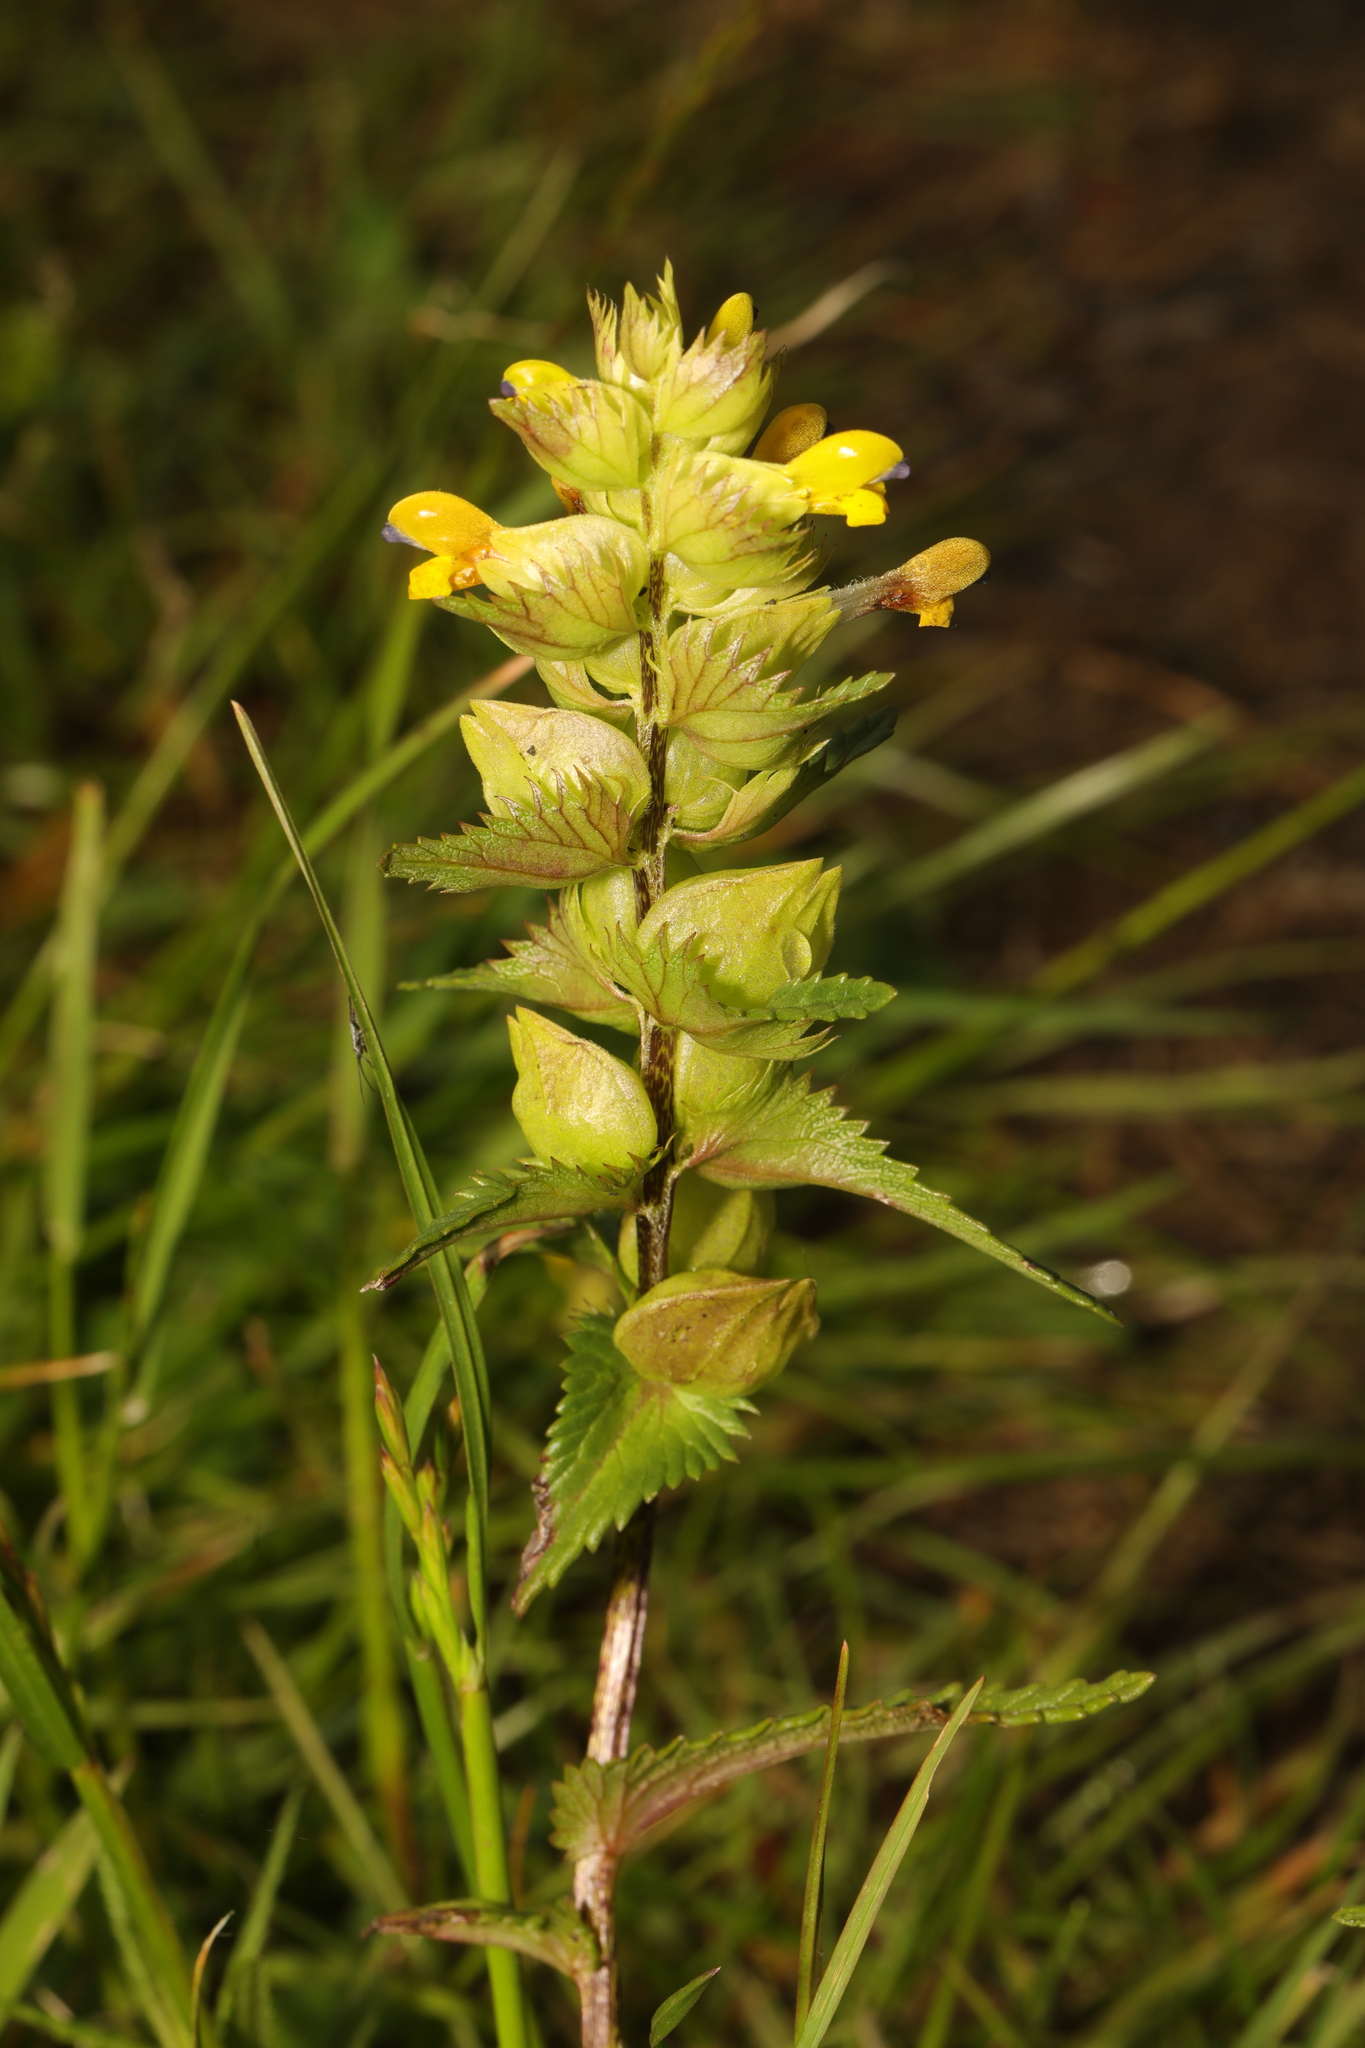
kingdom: Plantae
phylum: Tracheophyta
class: Magnoliopsida
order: Lamiales
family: Orobanchaceae
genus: Rhinanthus
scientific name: Rhinanthus minor
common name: Yellow-rattle
